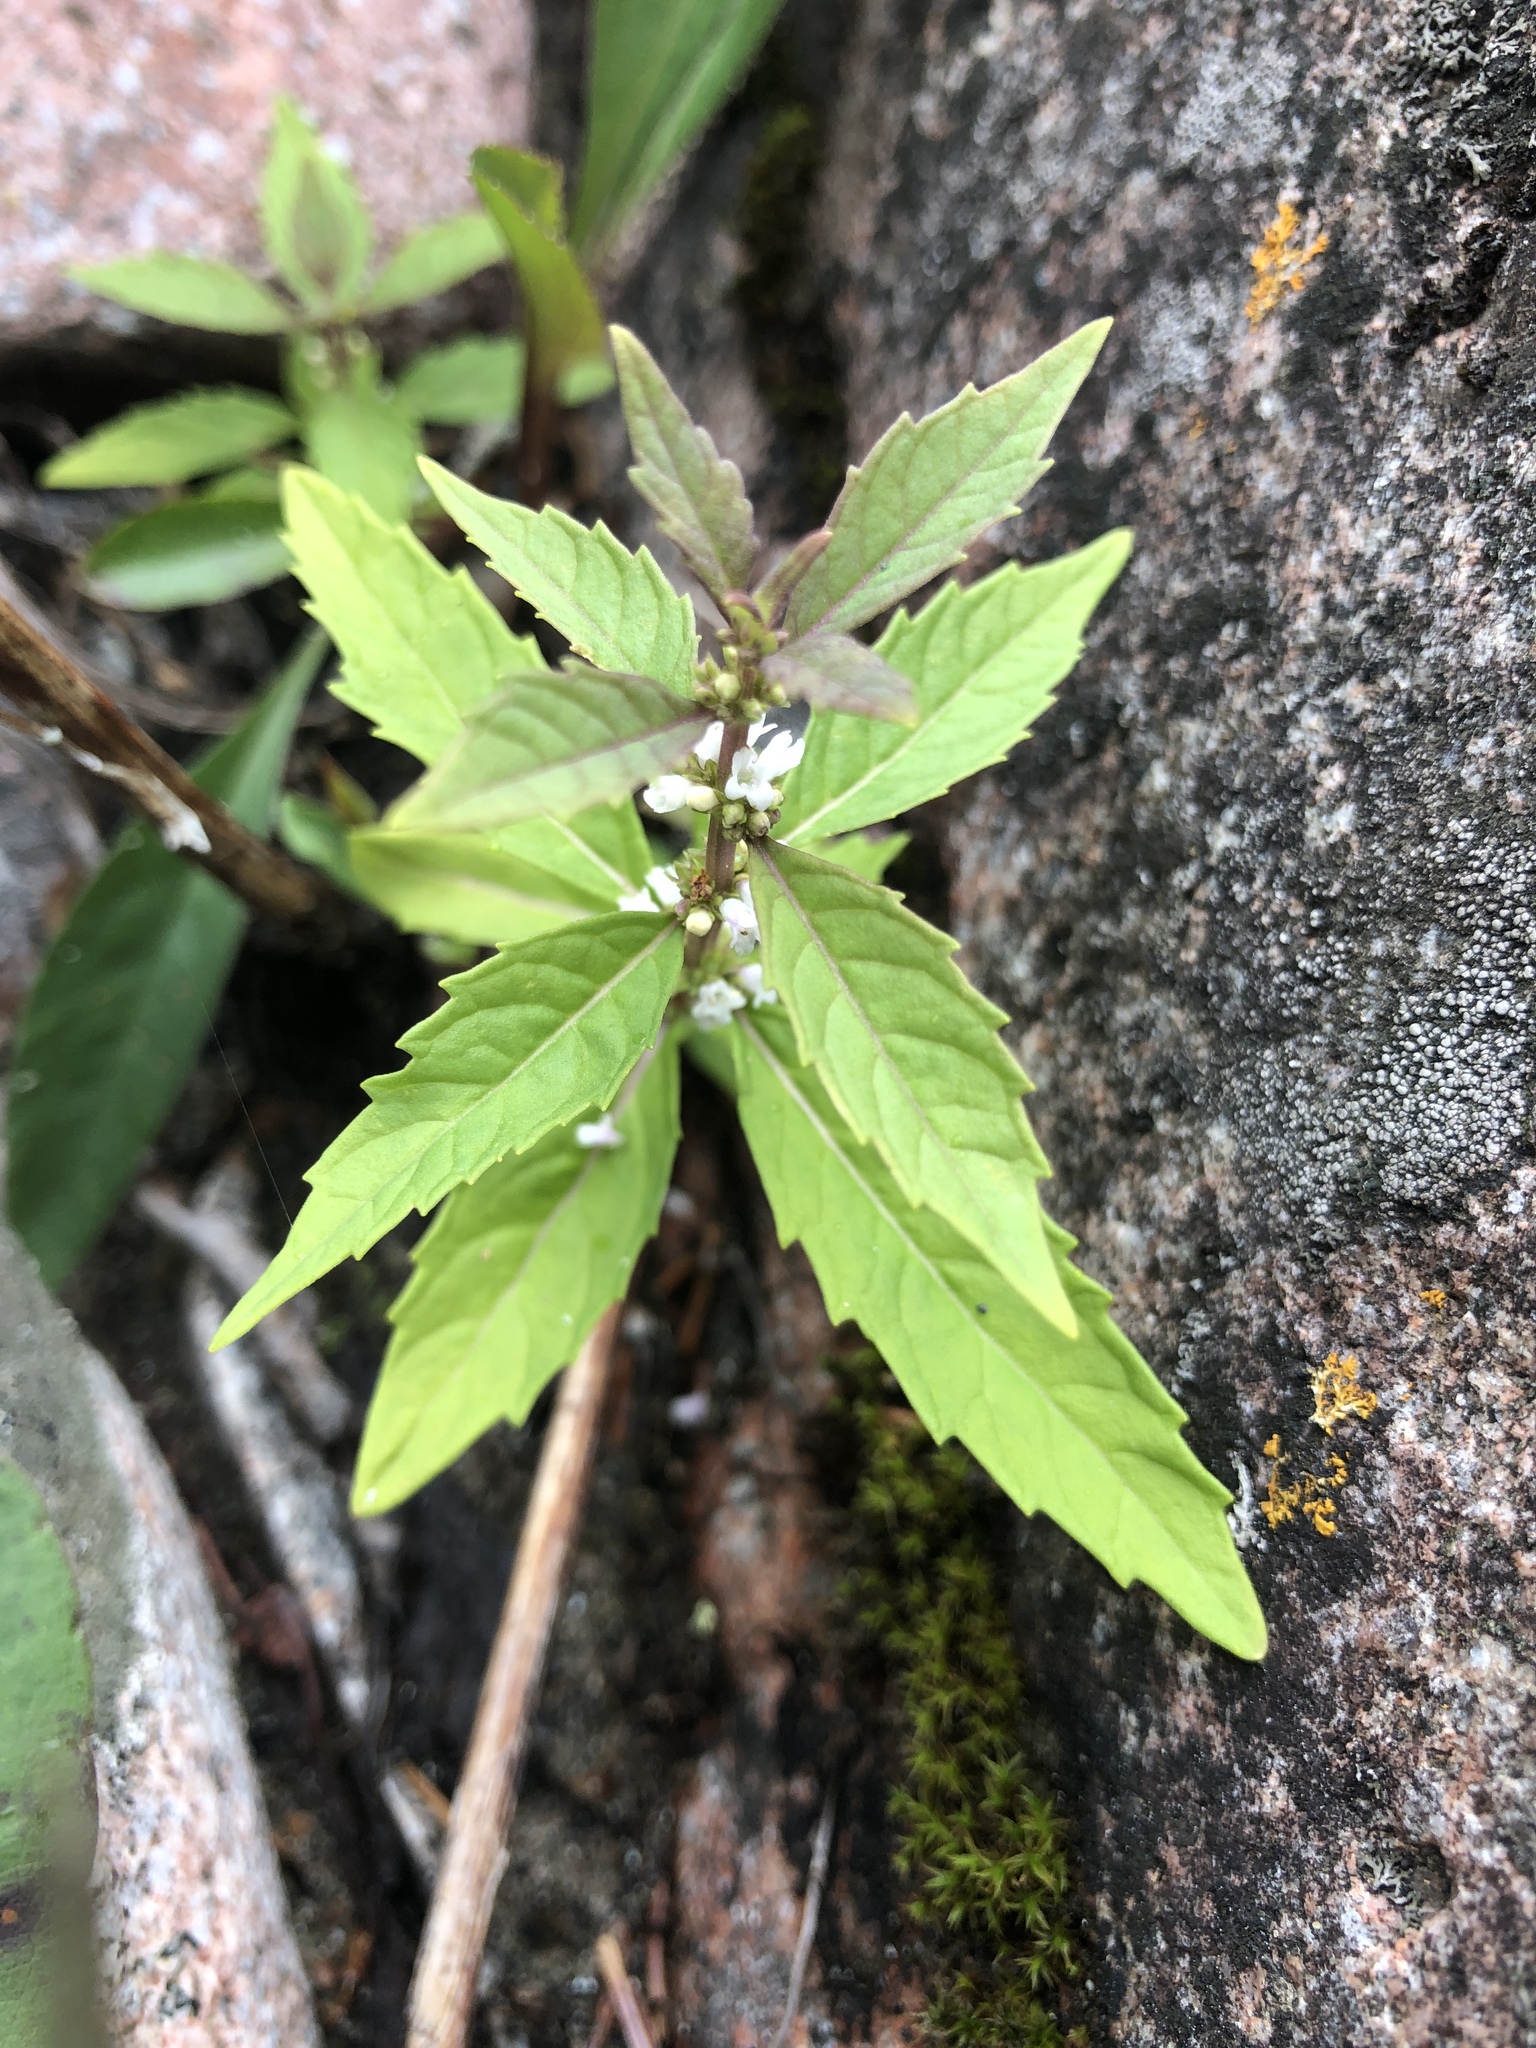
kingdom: Plantae
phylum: Tracheophyta
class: Magnoliopsida
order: Lamiales
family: Lamiaceae
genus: Lycopus
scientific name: Lycopus uniflorus
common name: Northern bugleweed
